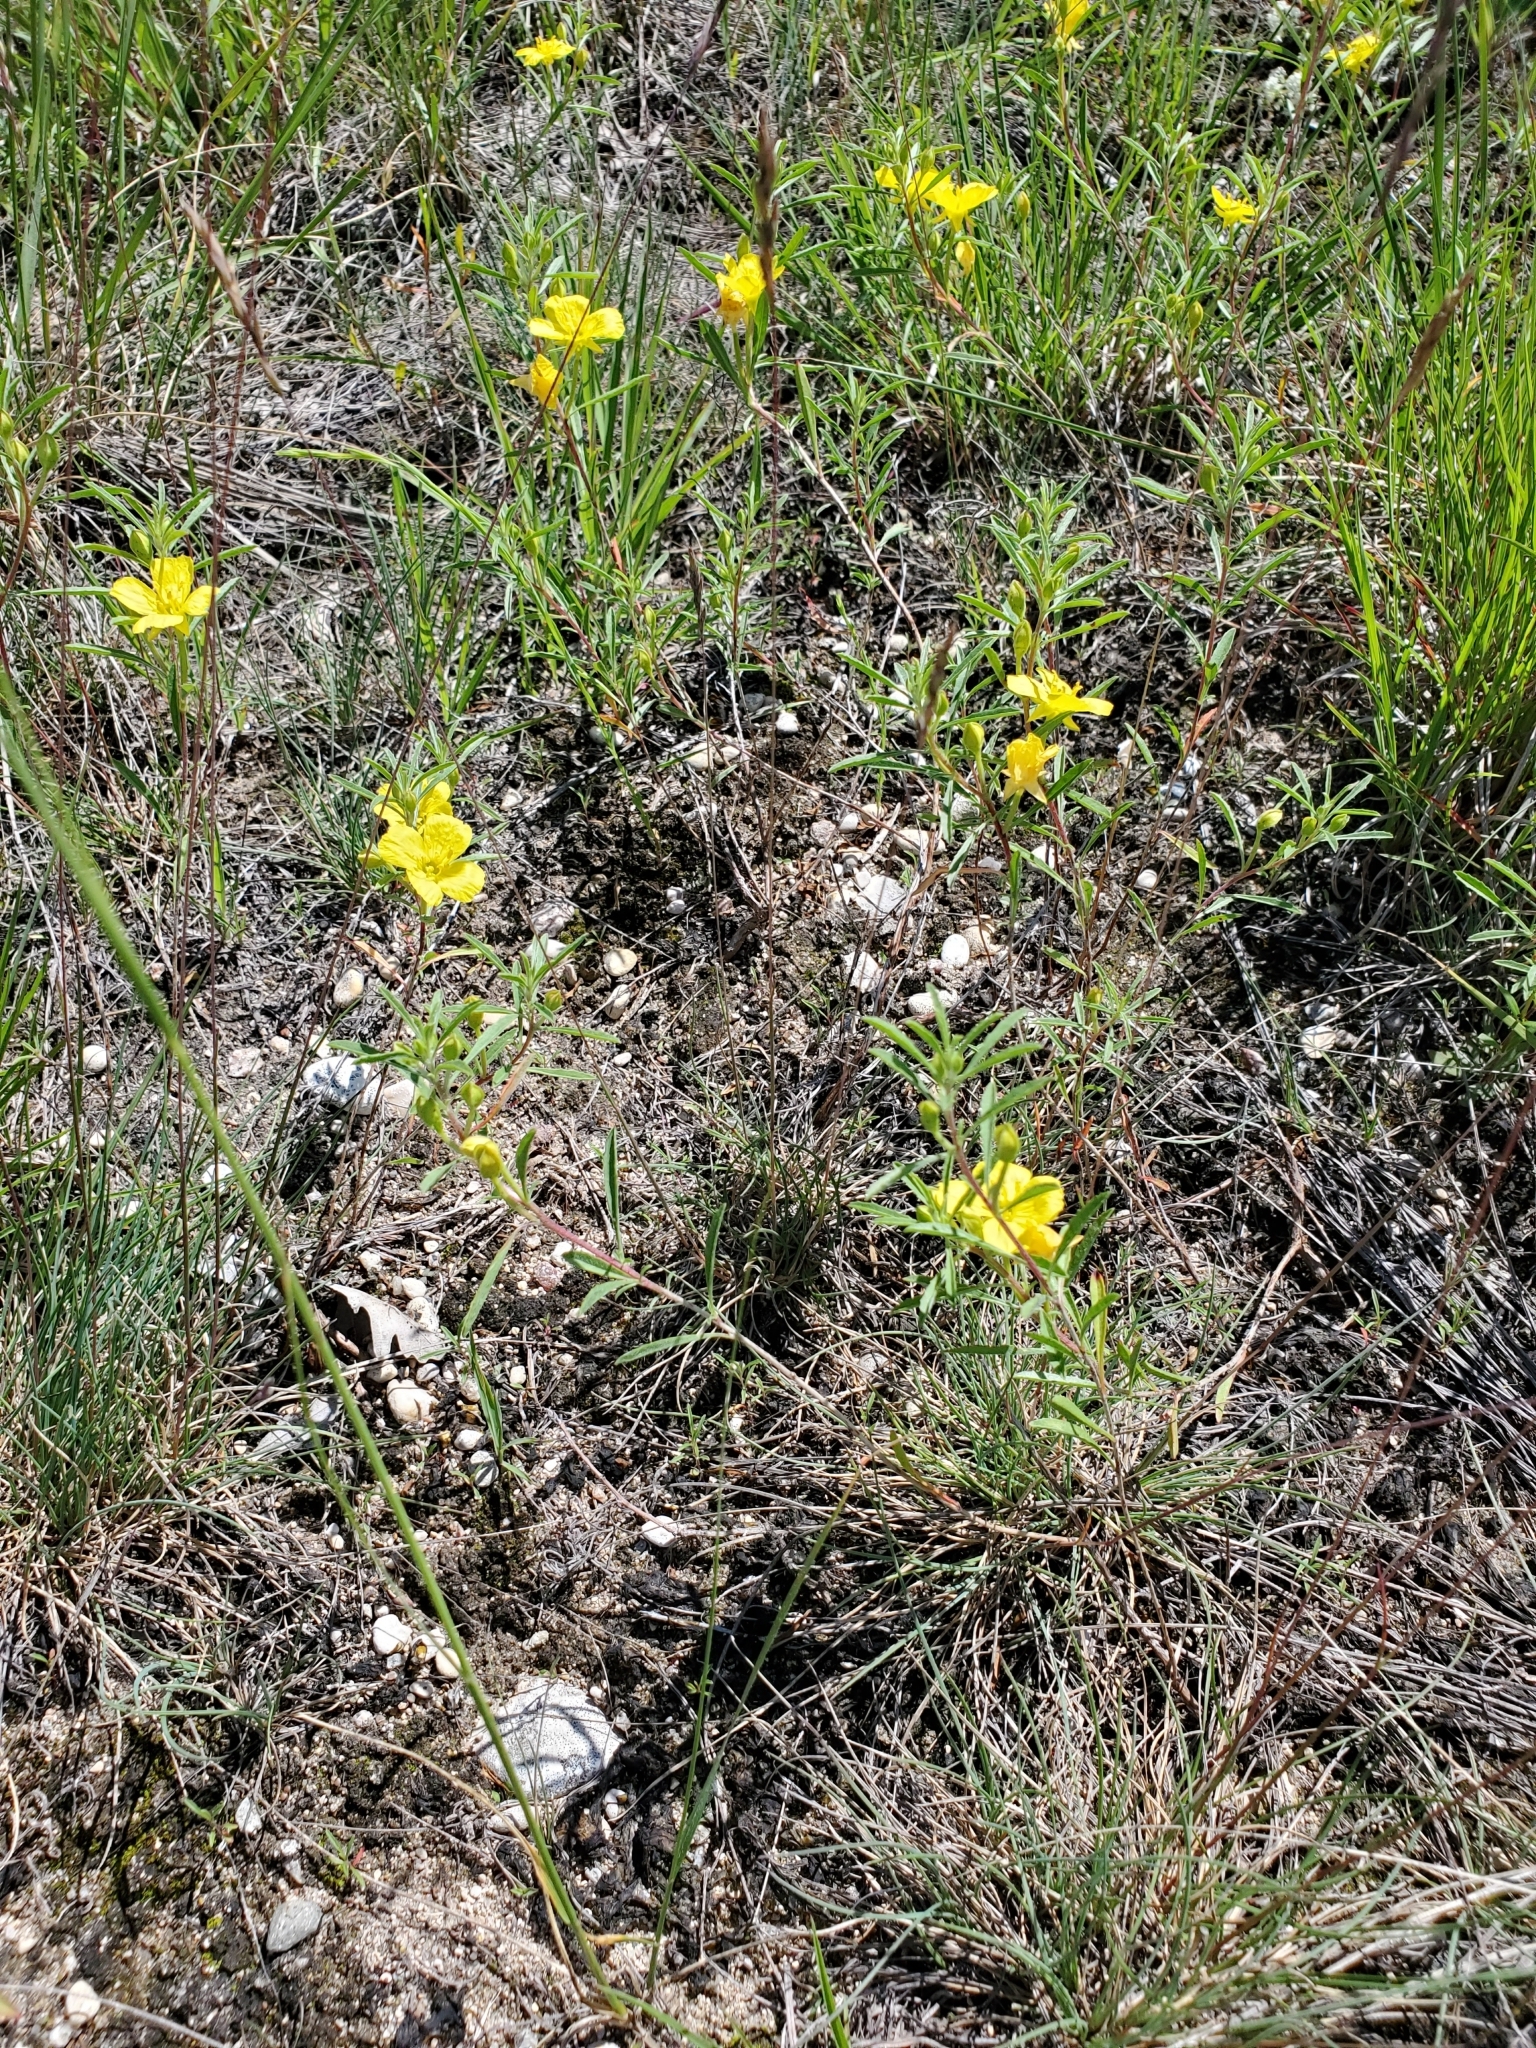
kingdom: Plantae
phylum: Tracheophyta
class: Magnoliopsida
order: Myrtales
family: Onagraceae
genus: Oenothera
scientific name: Oenothera serrulata
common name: Half-shrub calylophus
